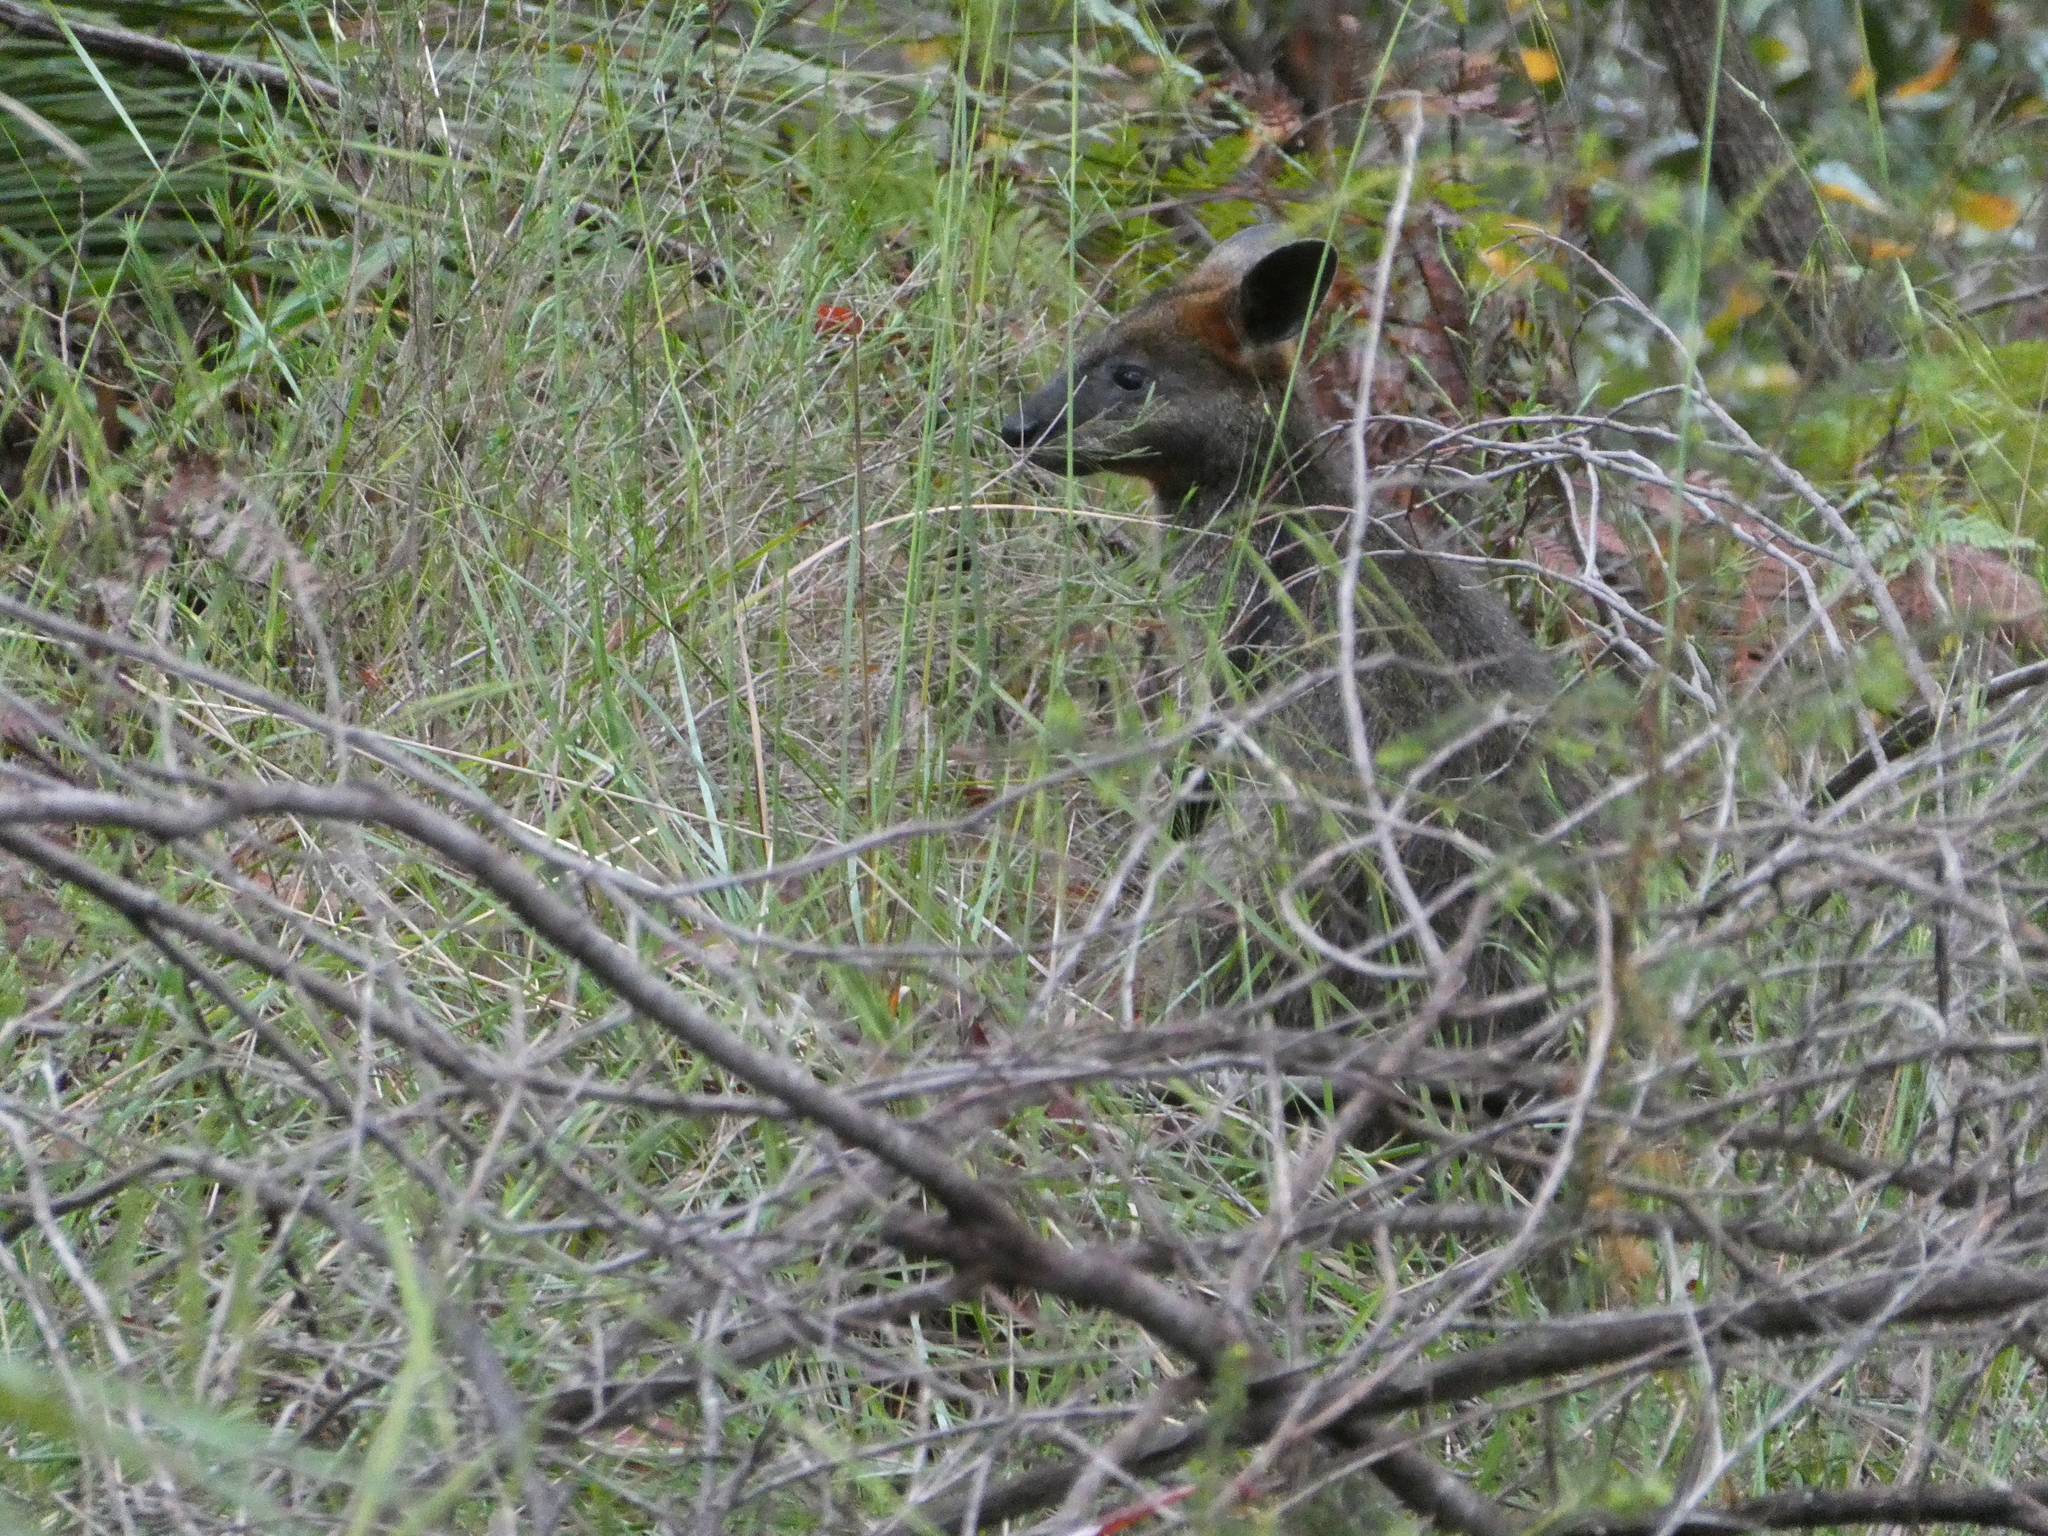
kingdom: Animalia
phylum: Chordata
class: Mammalia
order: Diprotodontia
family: Macropodidae
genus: Wallabia
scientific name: Wallabia bicolor
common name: Swamp wallaby
